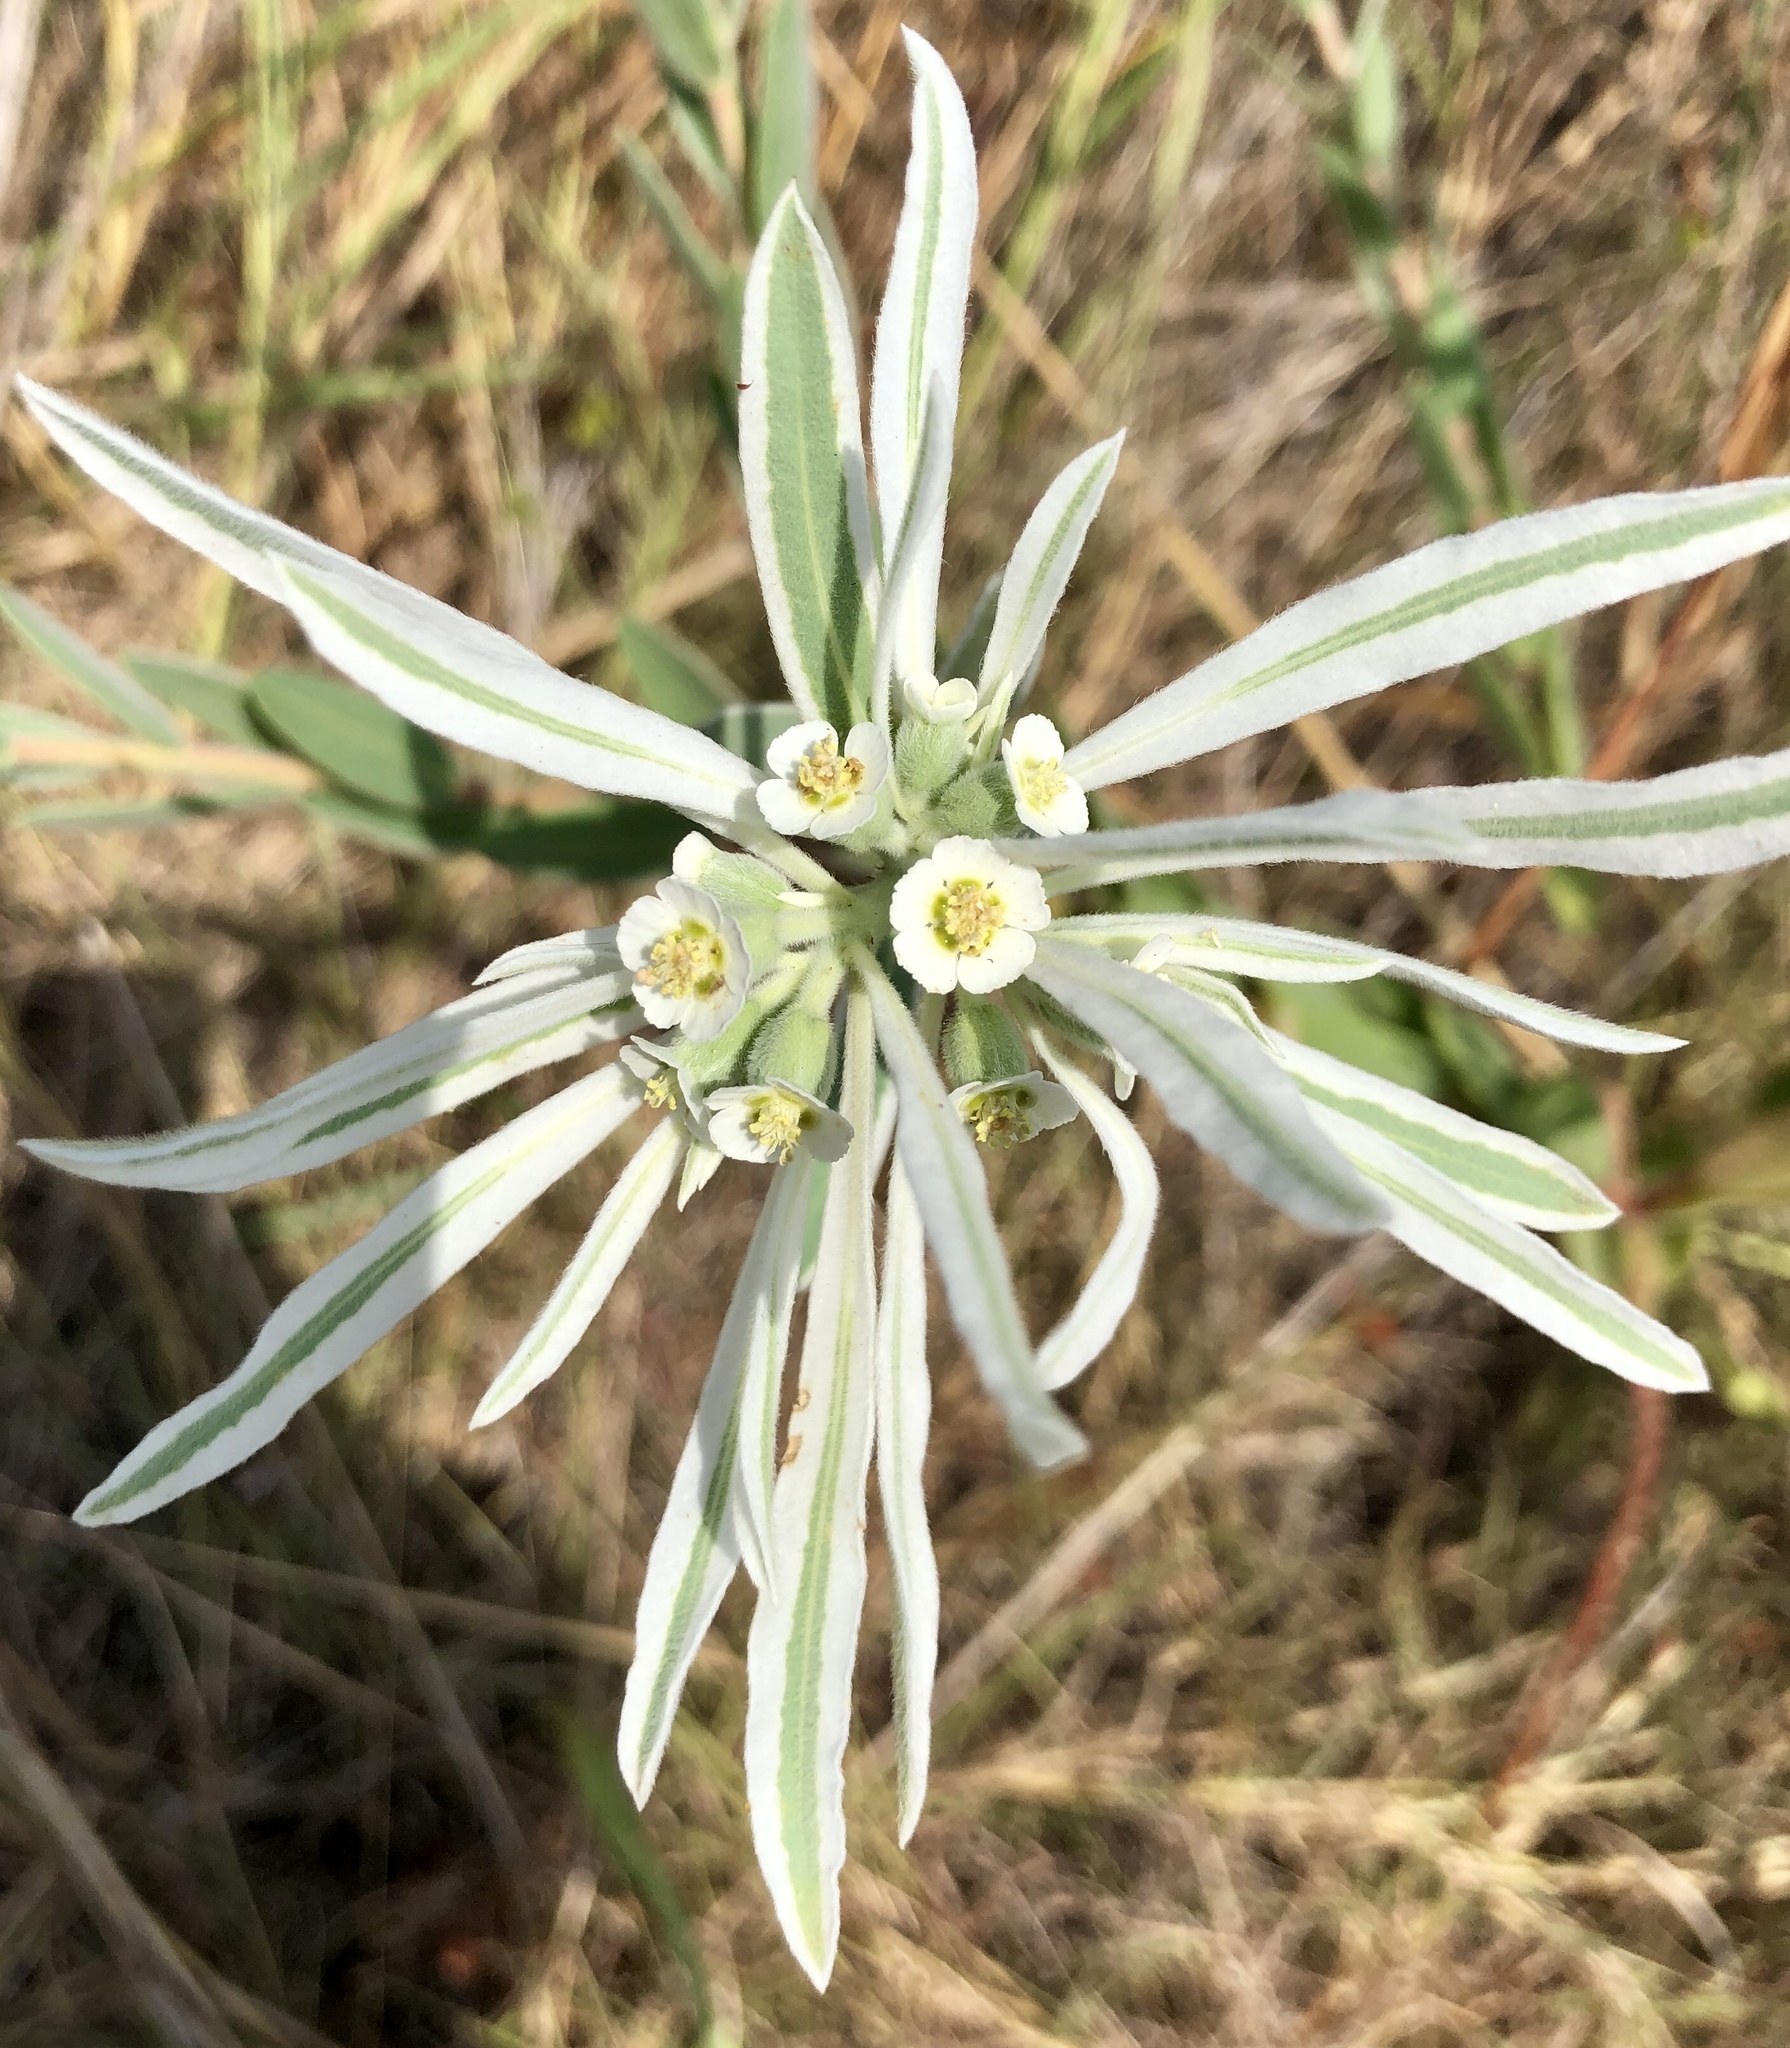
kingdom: Plantae
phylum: Tracheophyta
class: Magnoliopsida
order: Malpighiales
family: Euphorbiaceae
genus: Euphorbia
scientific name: Euphorbia bicolor
